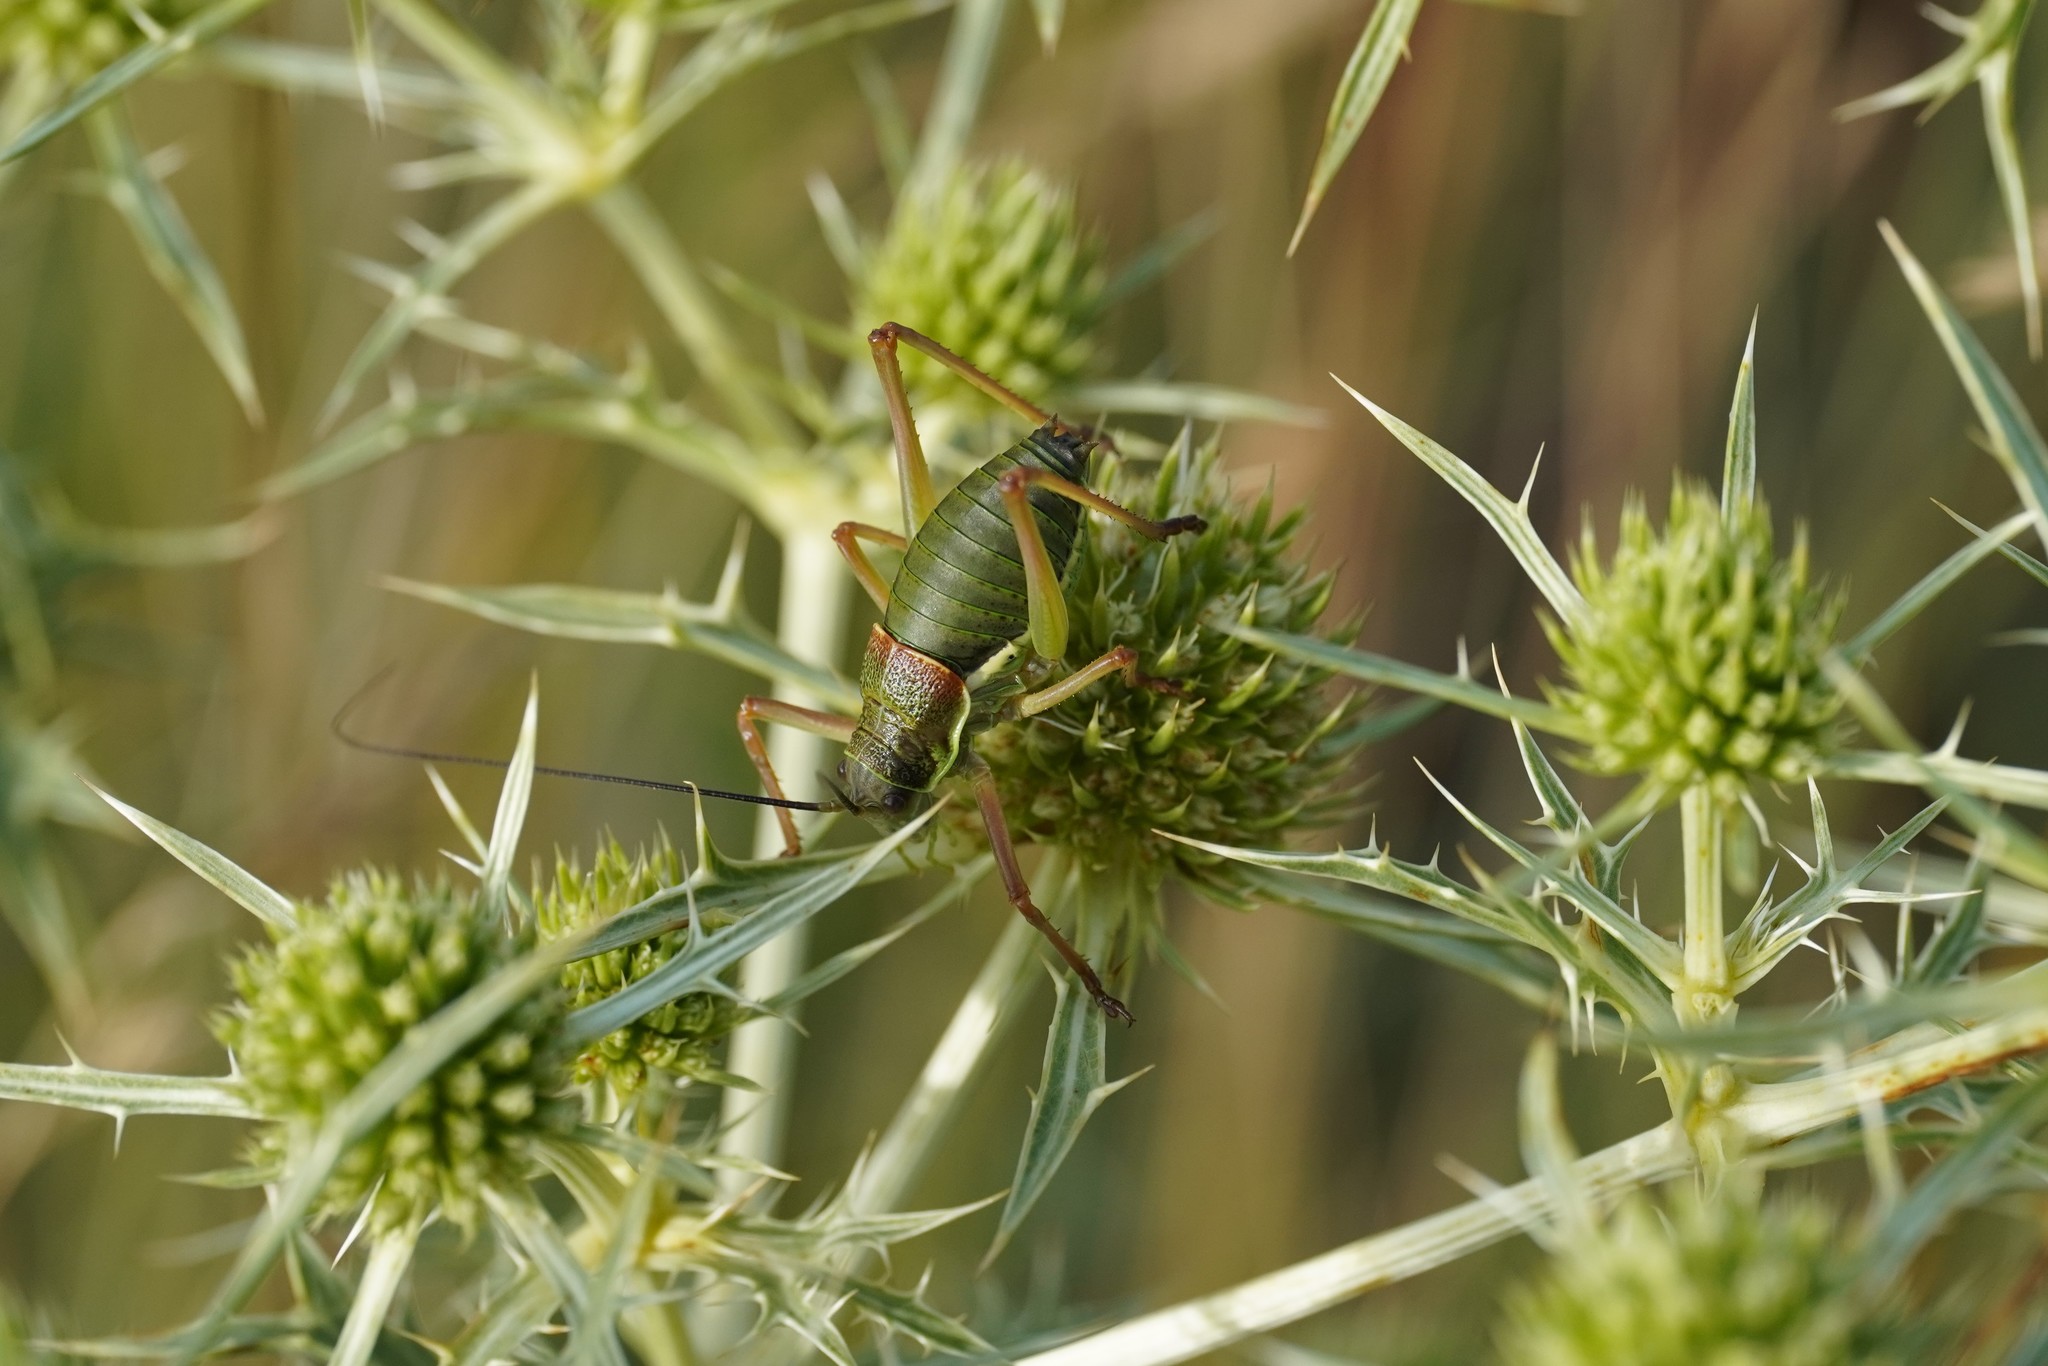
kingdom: Animalia
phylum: Arthropoda
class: Insecta
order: Orthoptera
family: Tettigoniidae
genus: Ephippiger
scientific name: Ephippiger diurnus
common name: Western saddle bush-cricket
